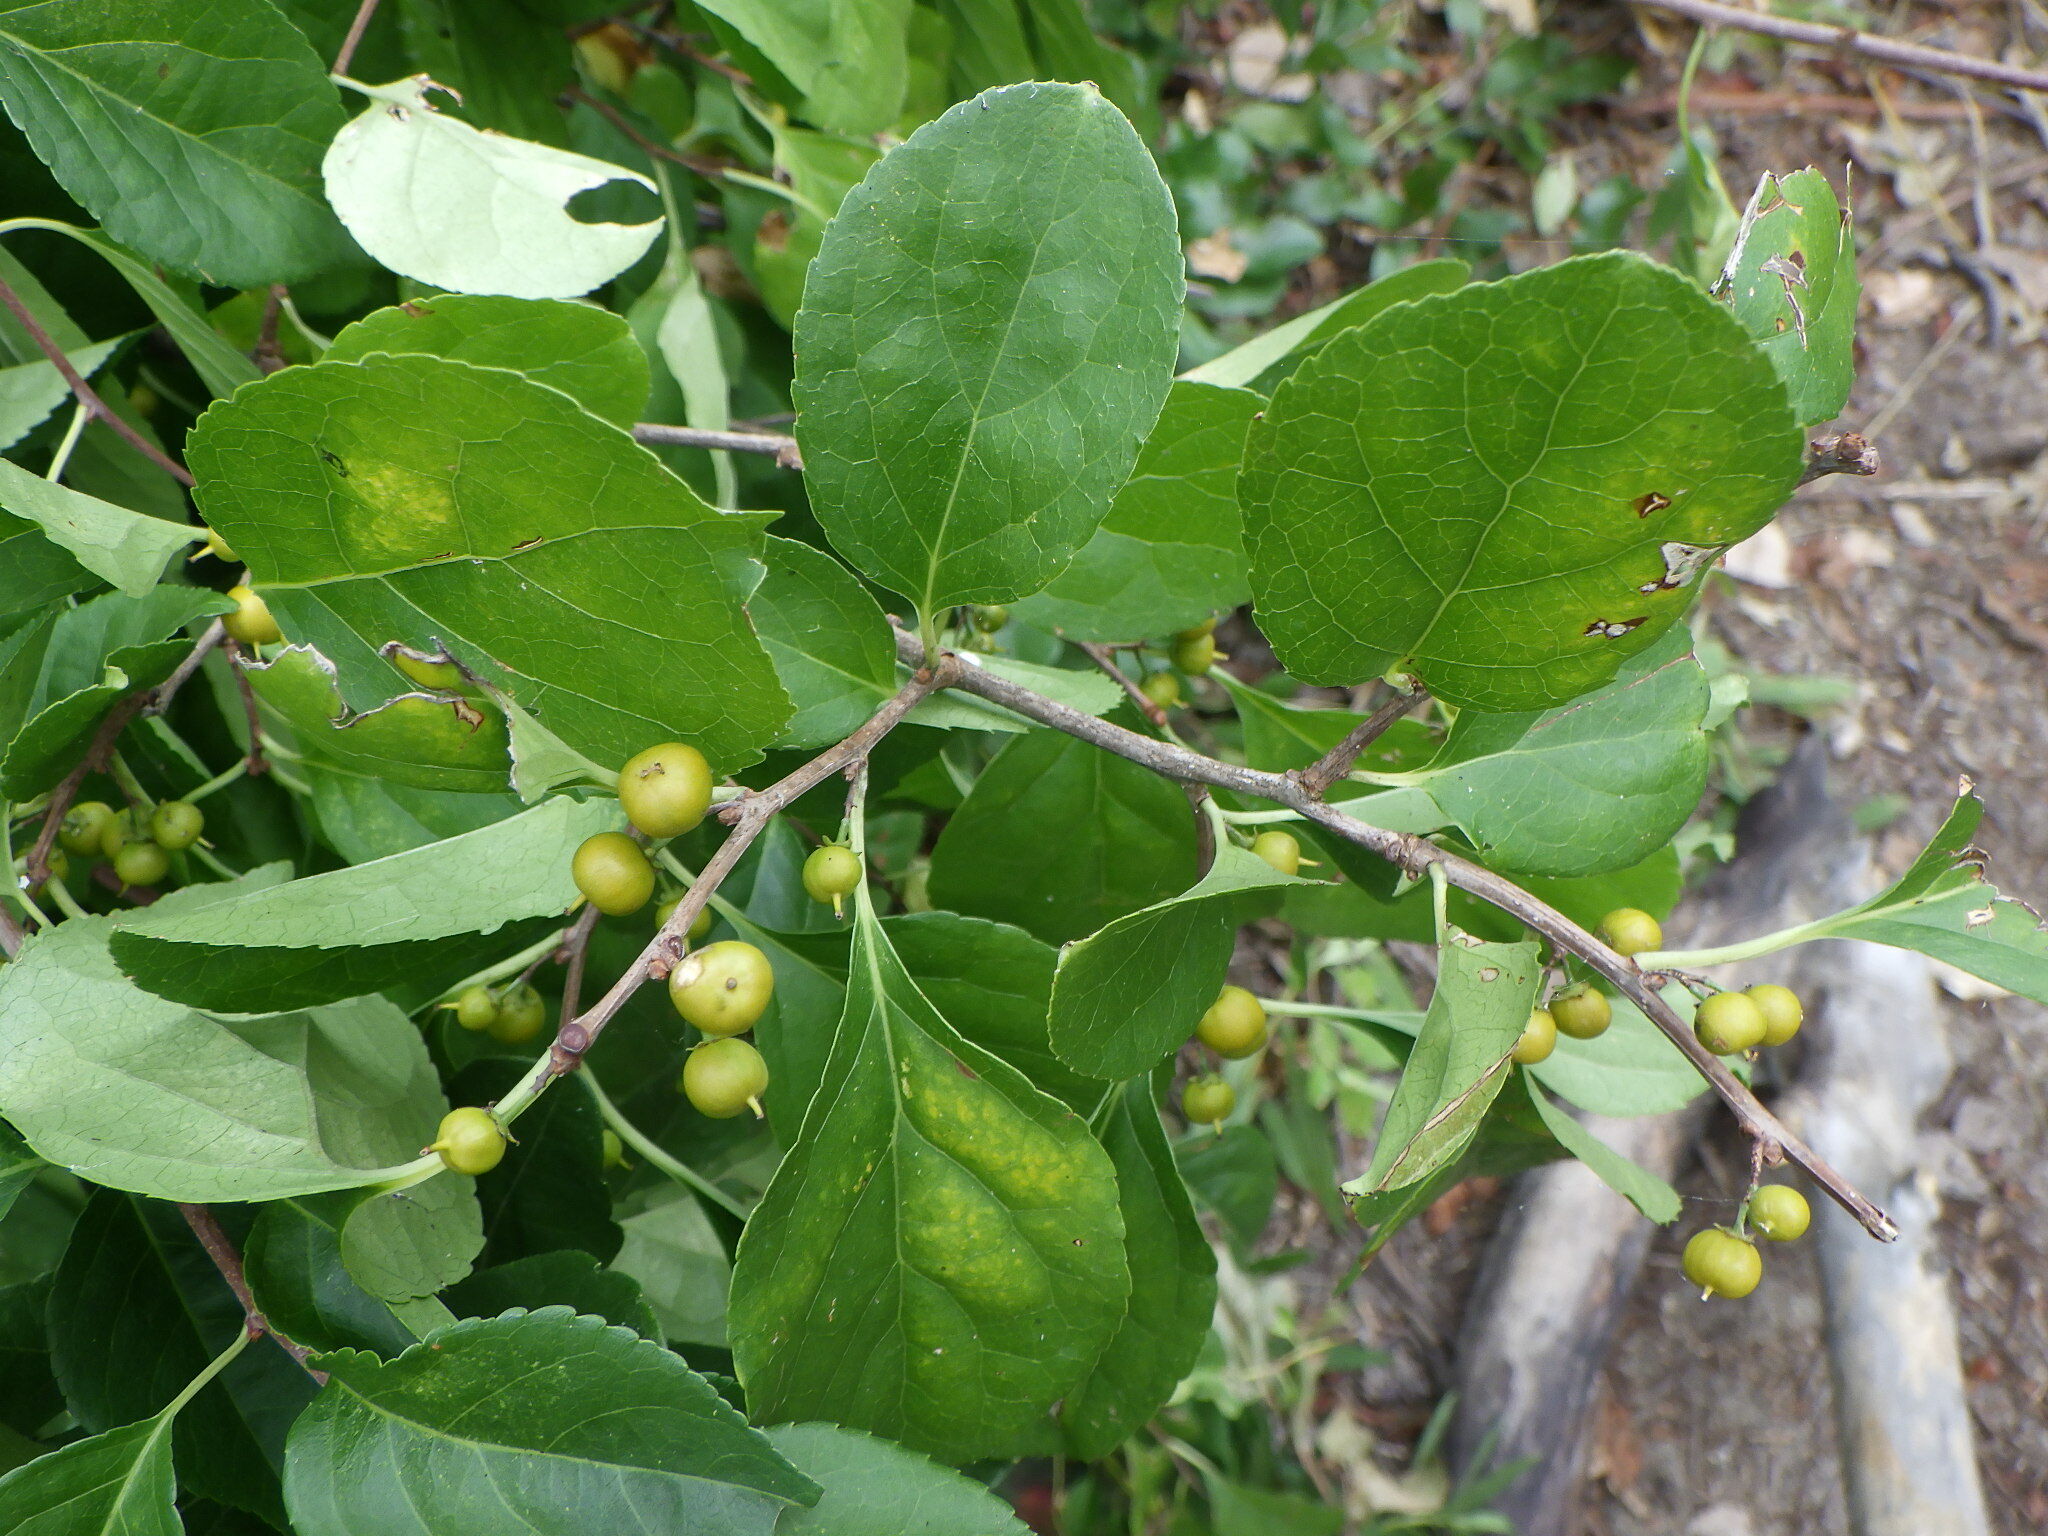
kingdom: Plantae
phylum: Tracheophyta
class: Magnoliopsida
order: Celastrales
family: Celastraceae
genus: Celastrus
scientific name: Celastrus orbiculatus
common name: Oriental bittersweet
